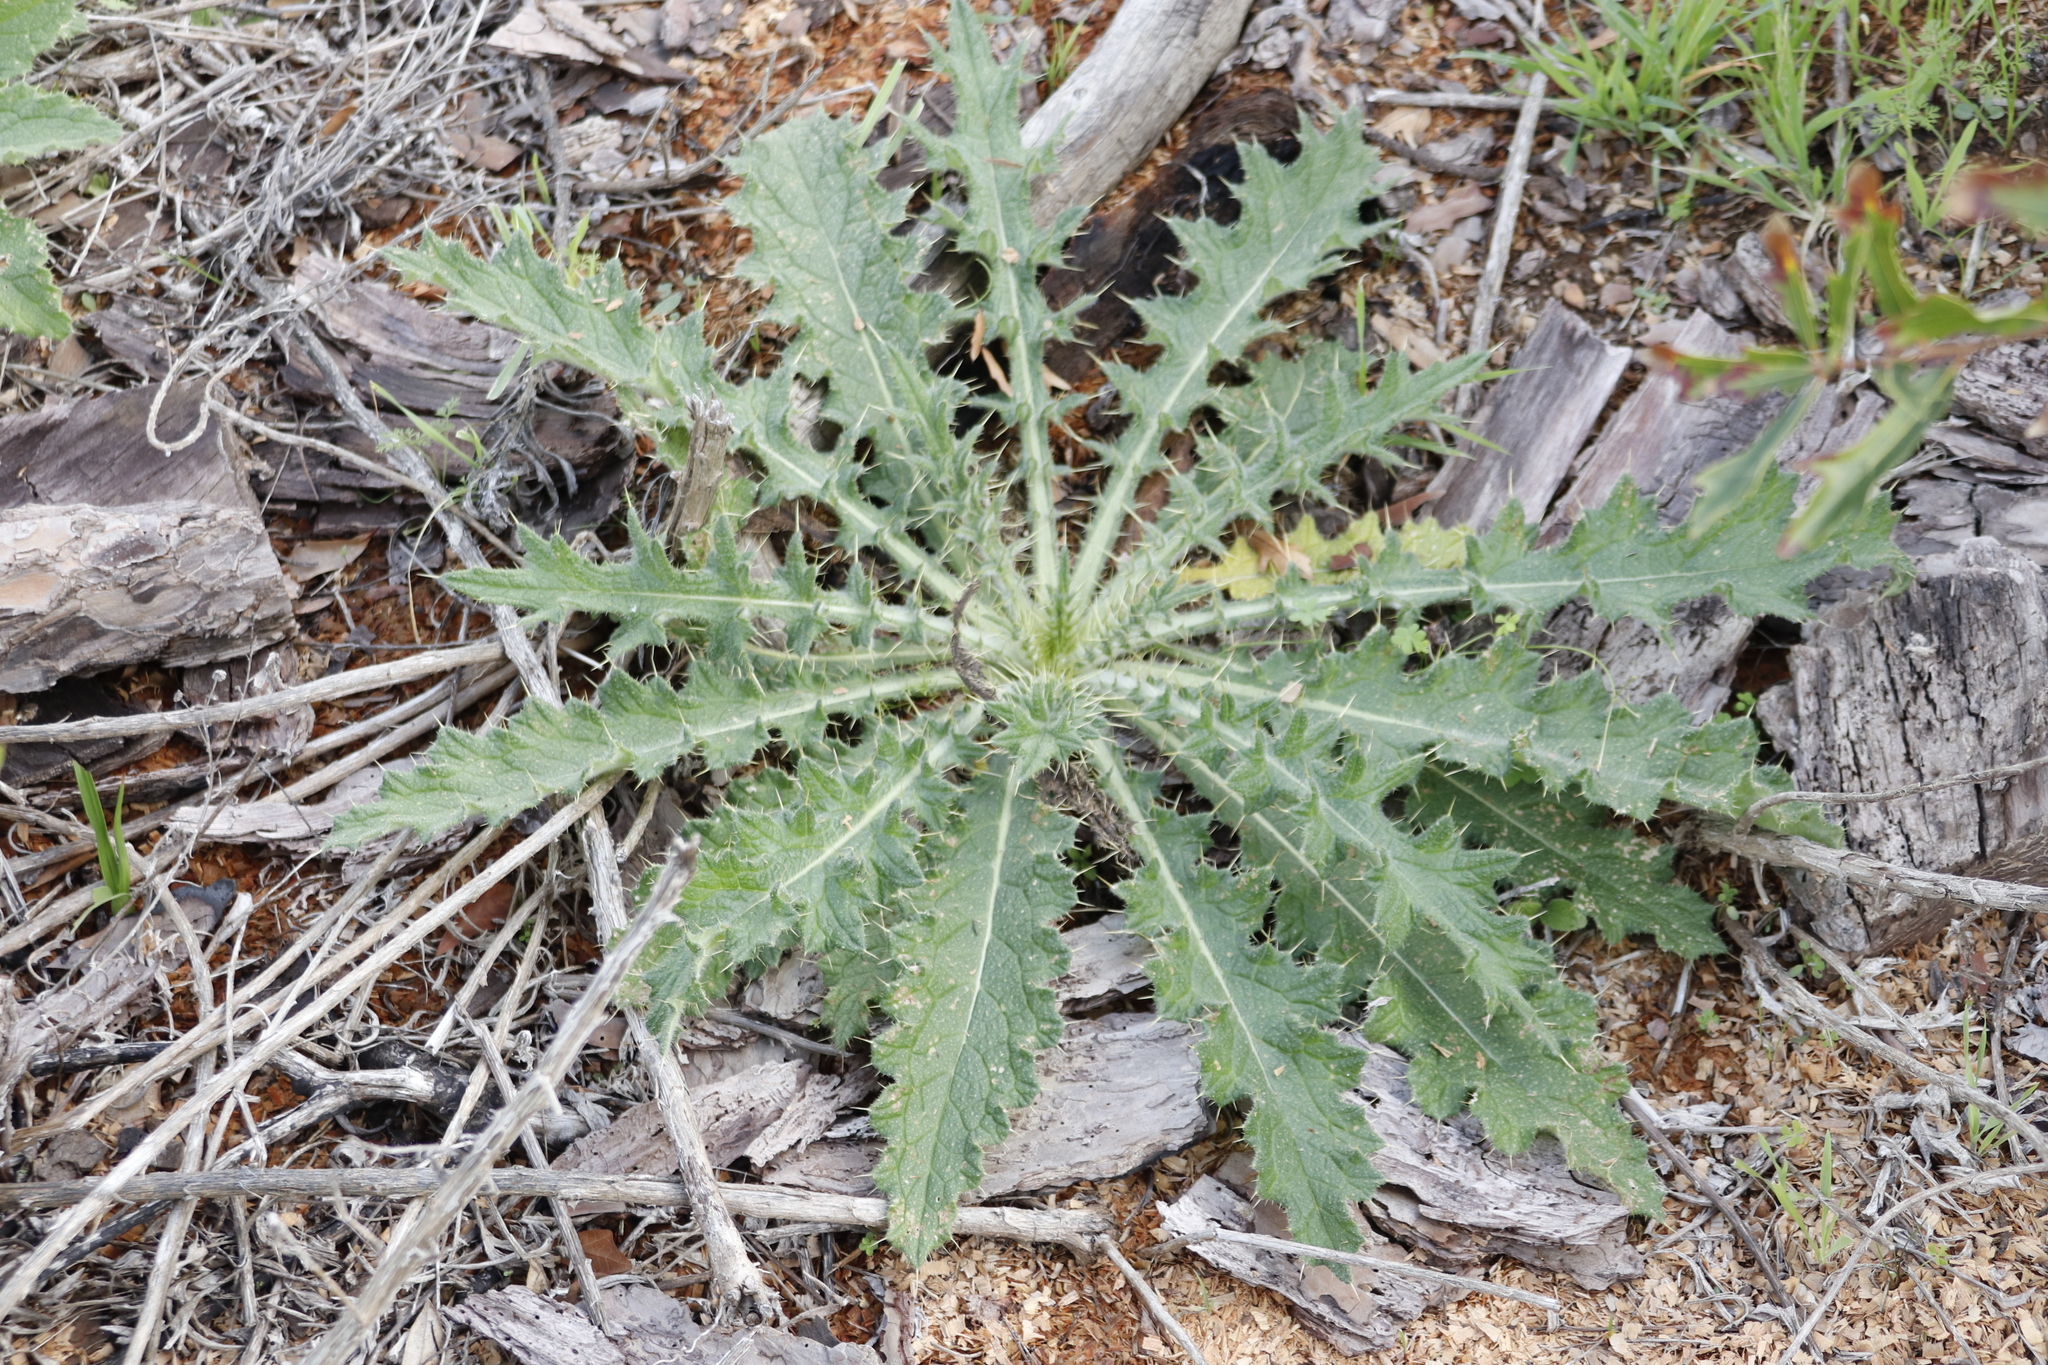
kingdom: Plantae
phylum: Tracheophyta
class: Magnoliopsida
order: Asterales
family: Asteraceae
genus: Cirsium
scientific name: Cirsium vulgare
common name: Bull thistle
